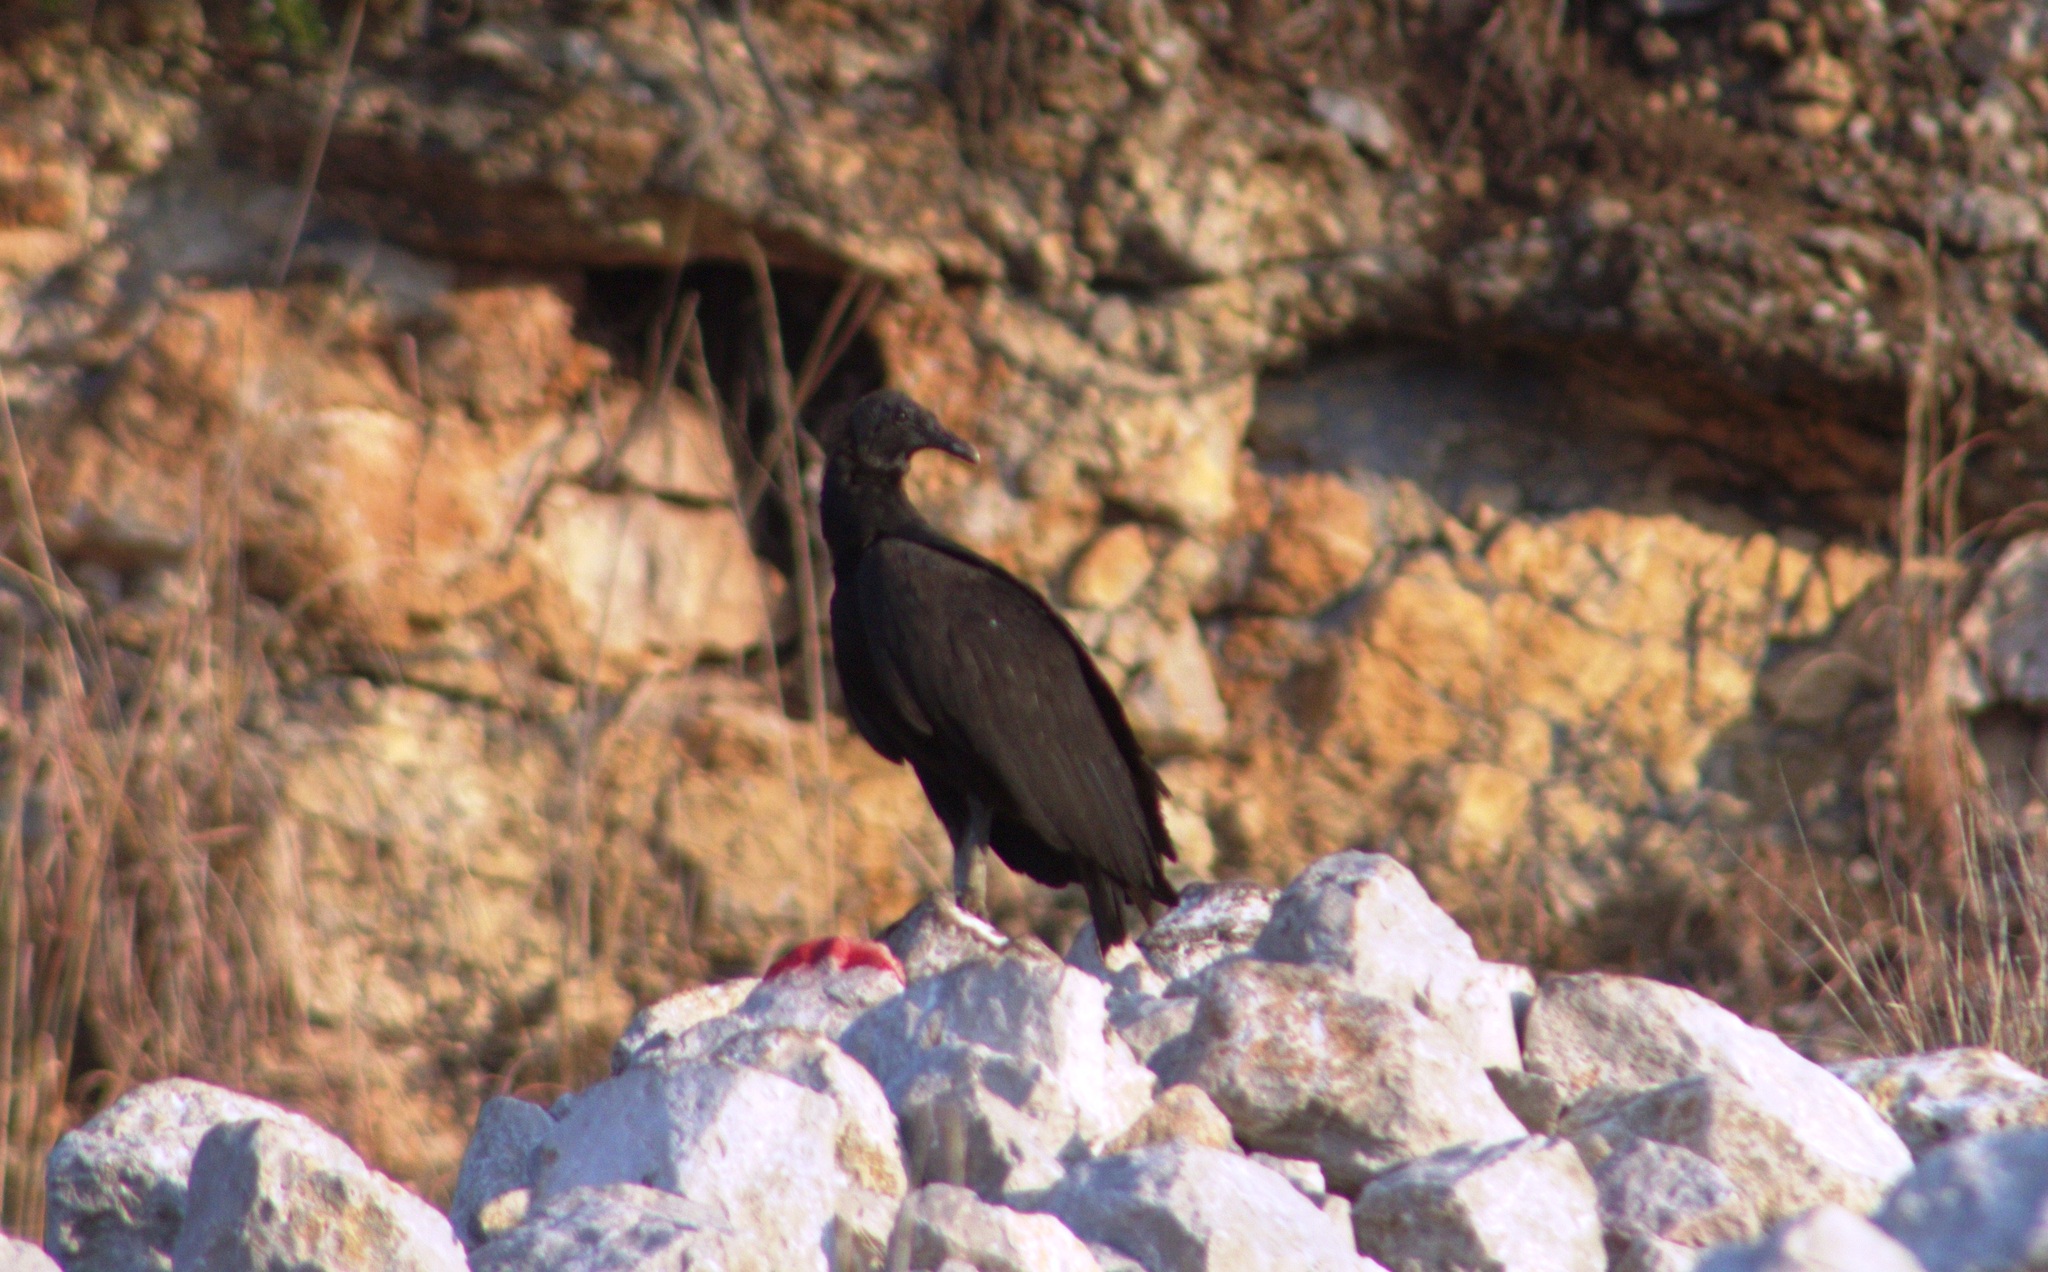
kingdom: Animalia
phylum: Chordata
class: Aves
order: Accipitriformes
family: Cathartidae
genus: Coragyps
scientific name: Coragyps atratus
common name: Black vulture
